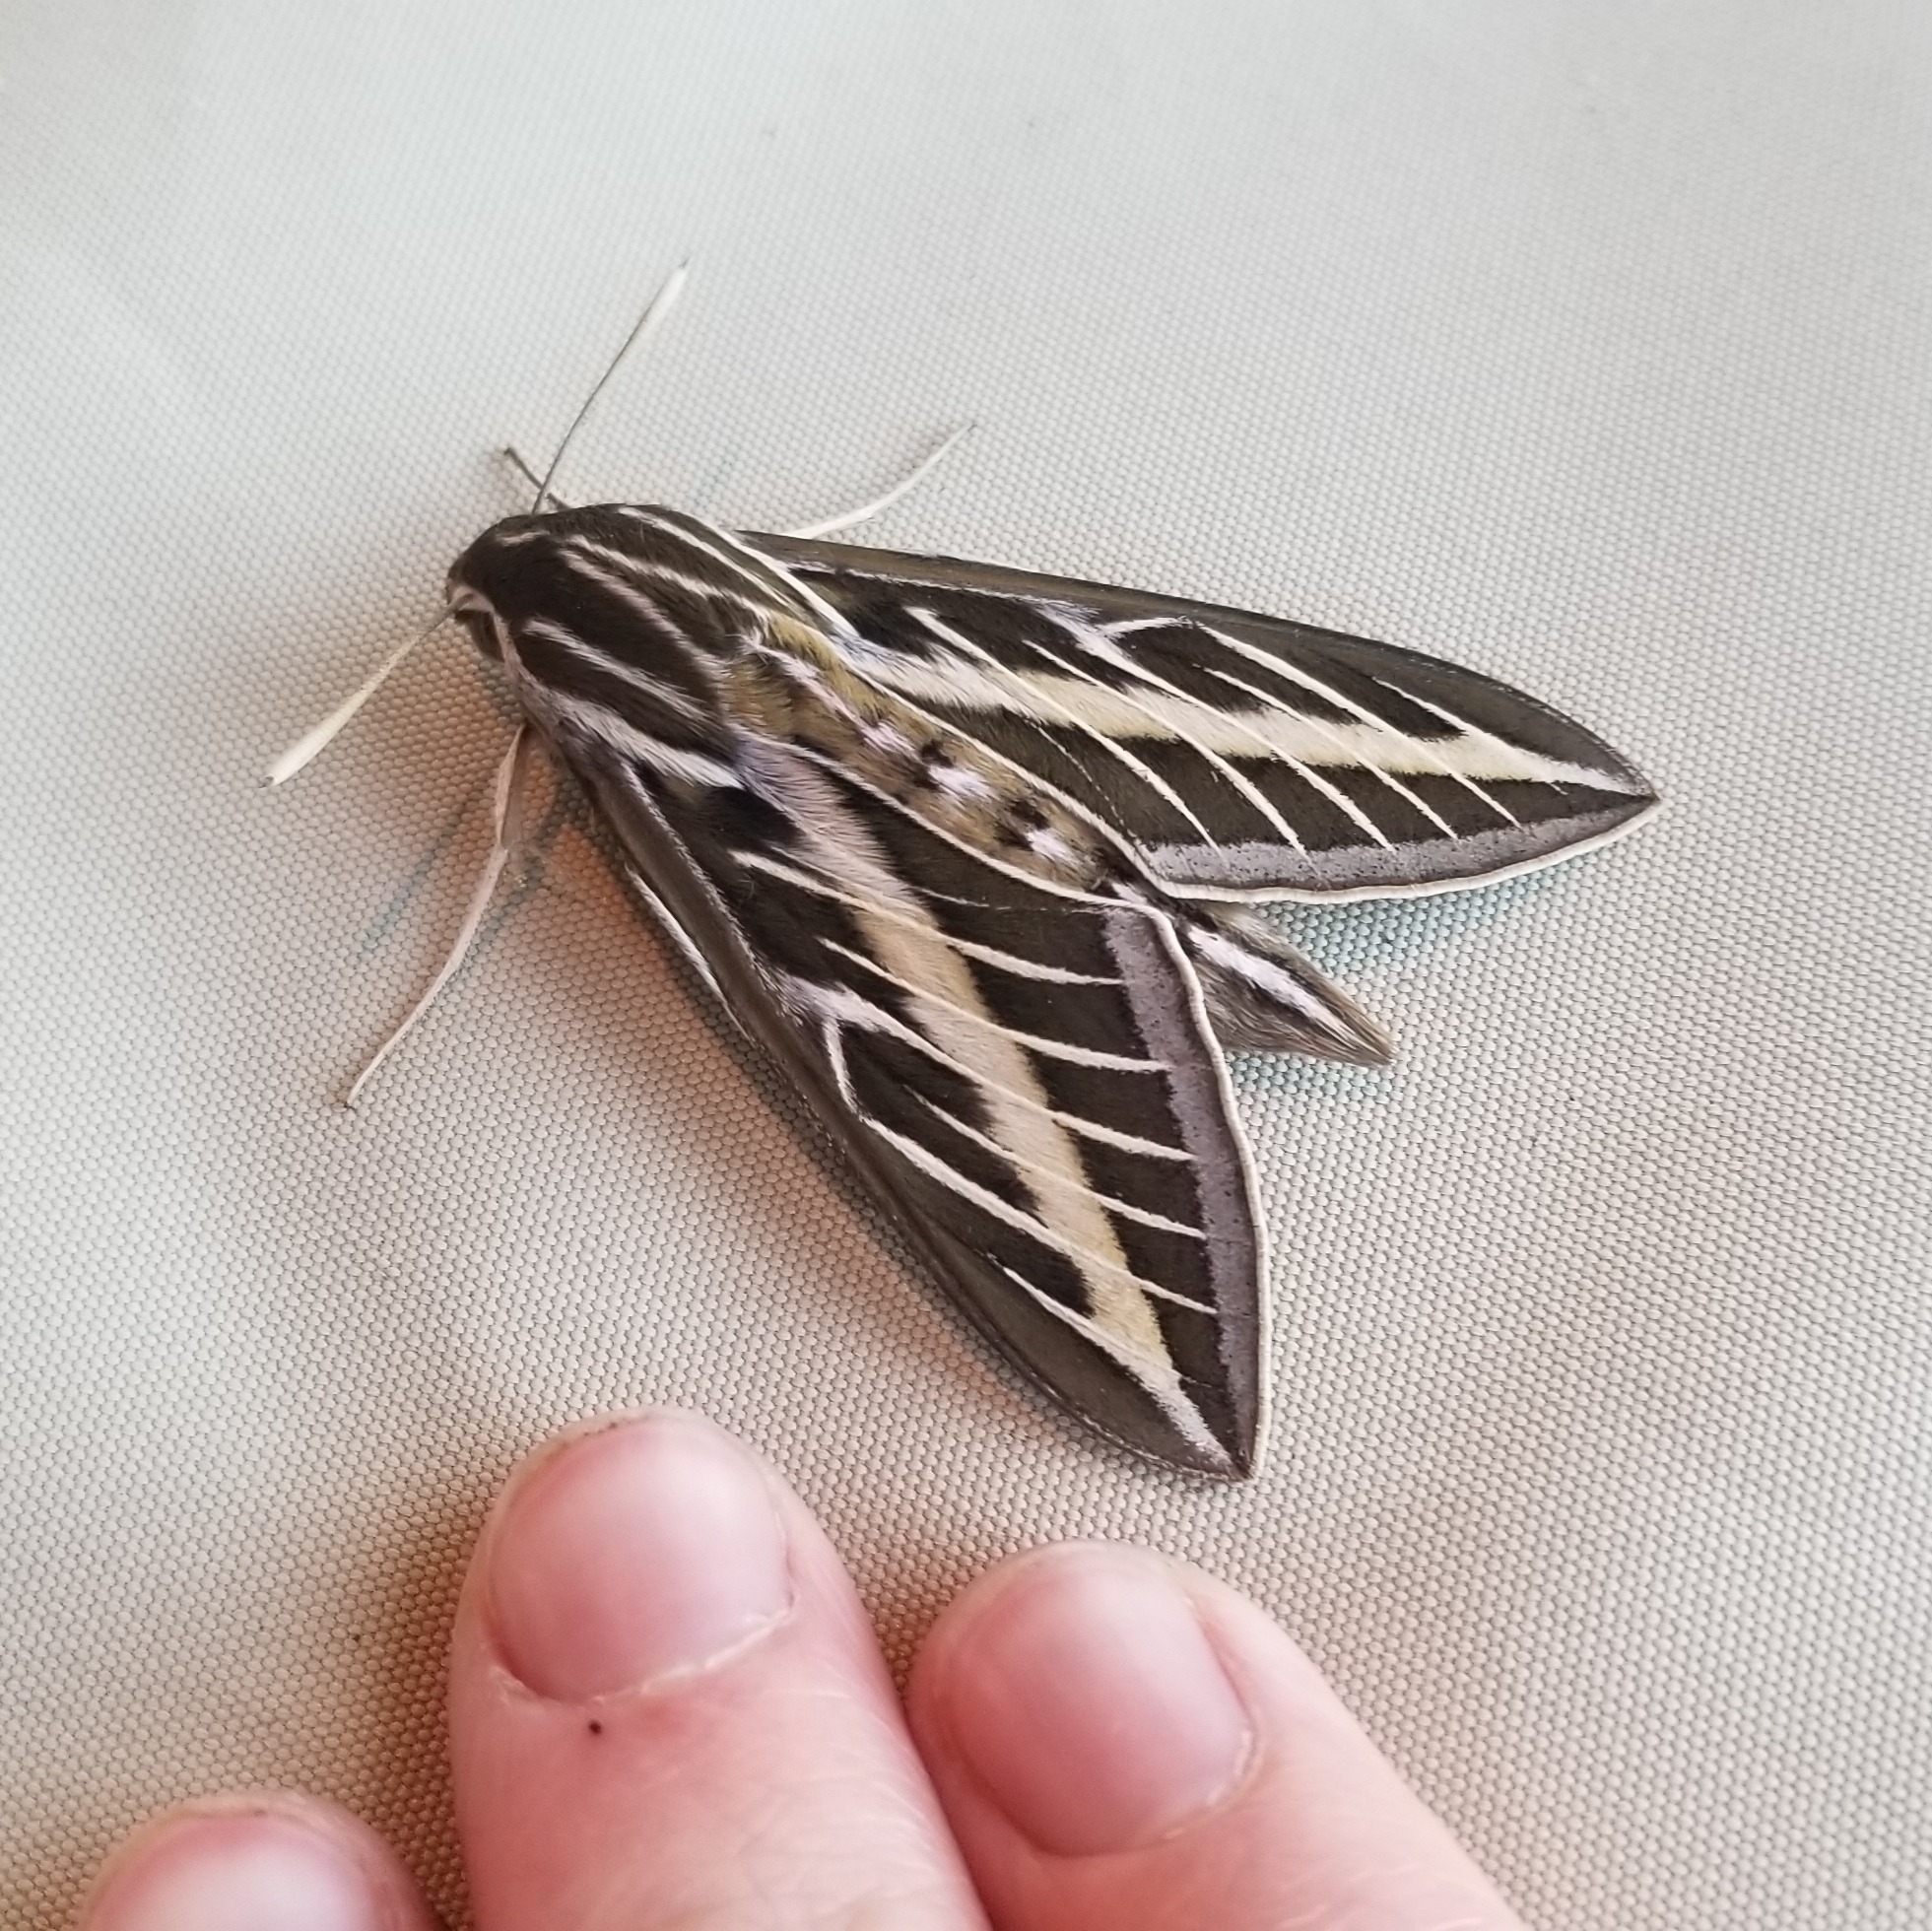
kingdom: Animalia
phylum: Arthropoda
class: Insecta
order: Lepidoptera
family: Sphingidae
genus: Hyles
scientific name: Hyles lineata
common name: White-lined sphinx
